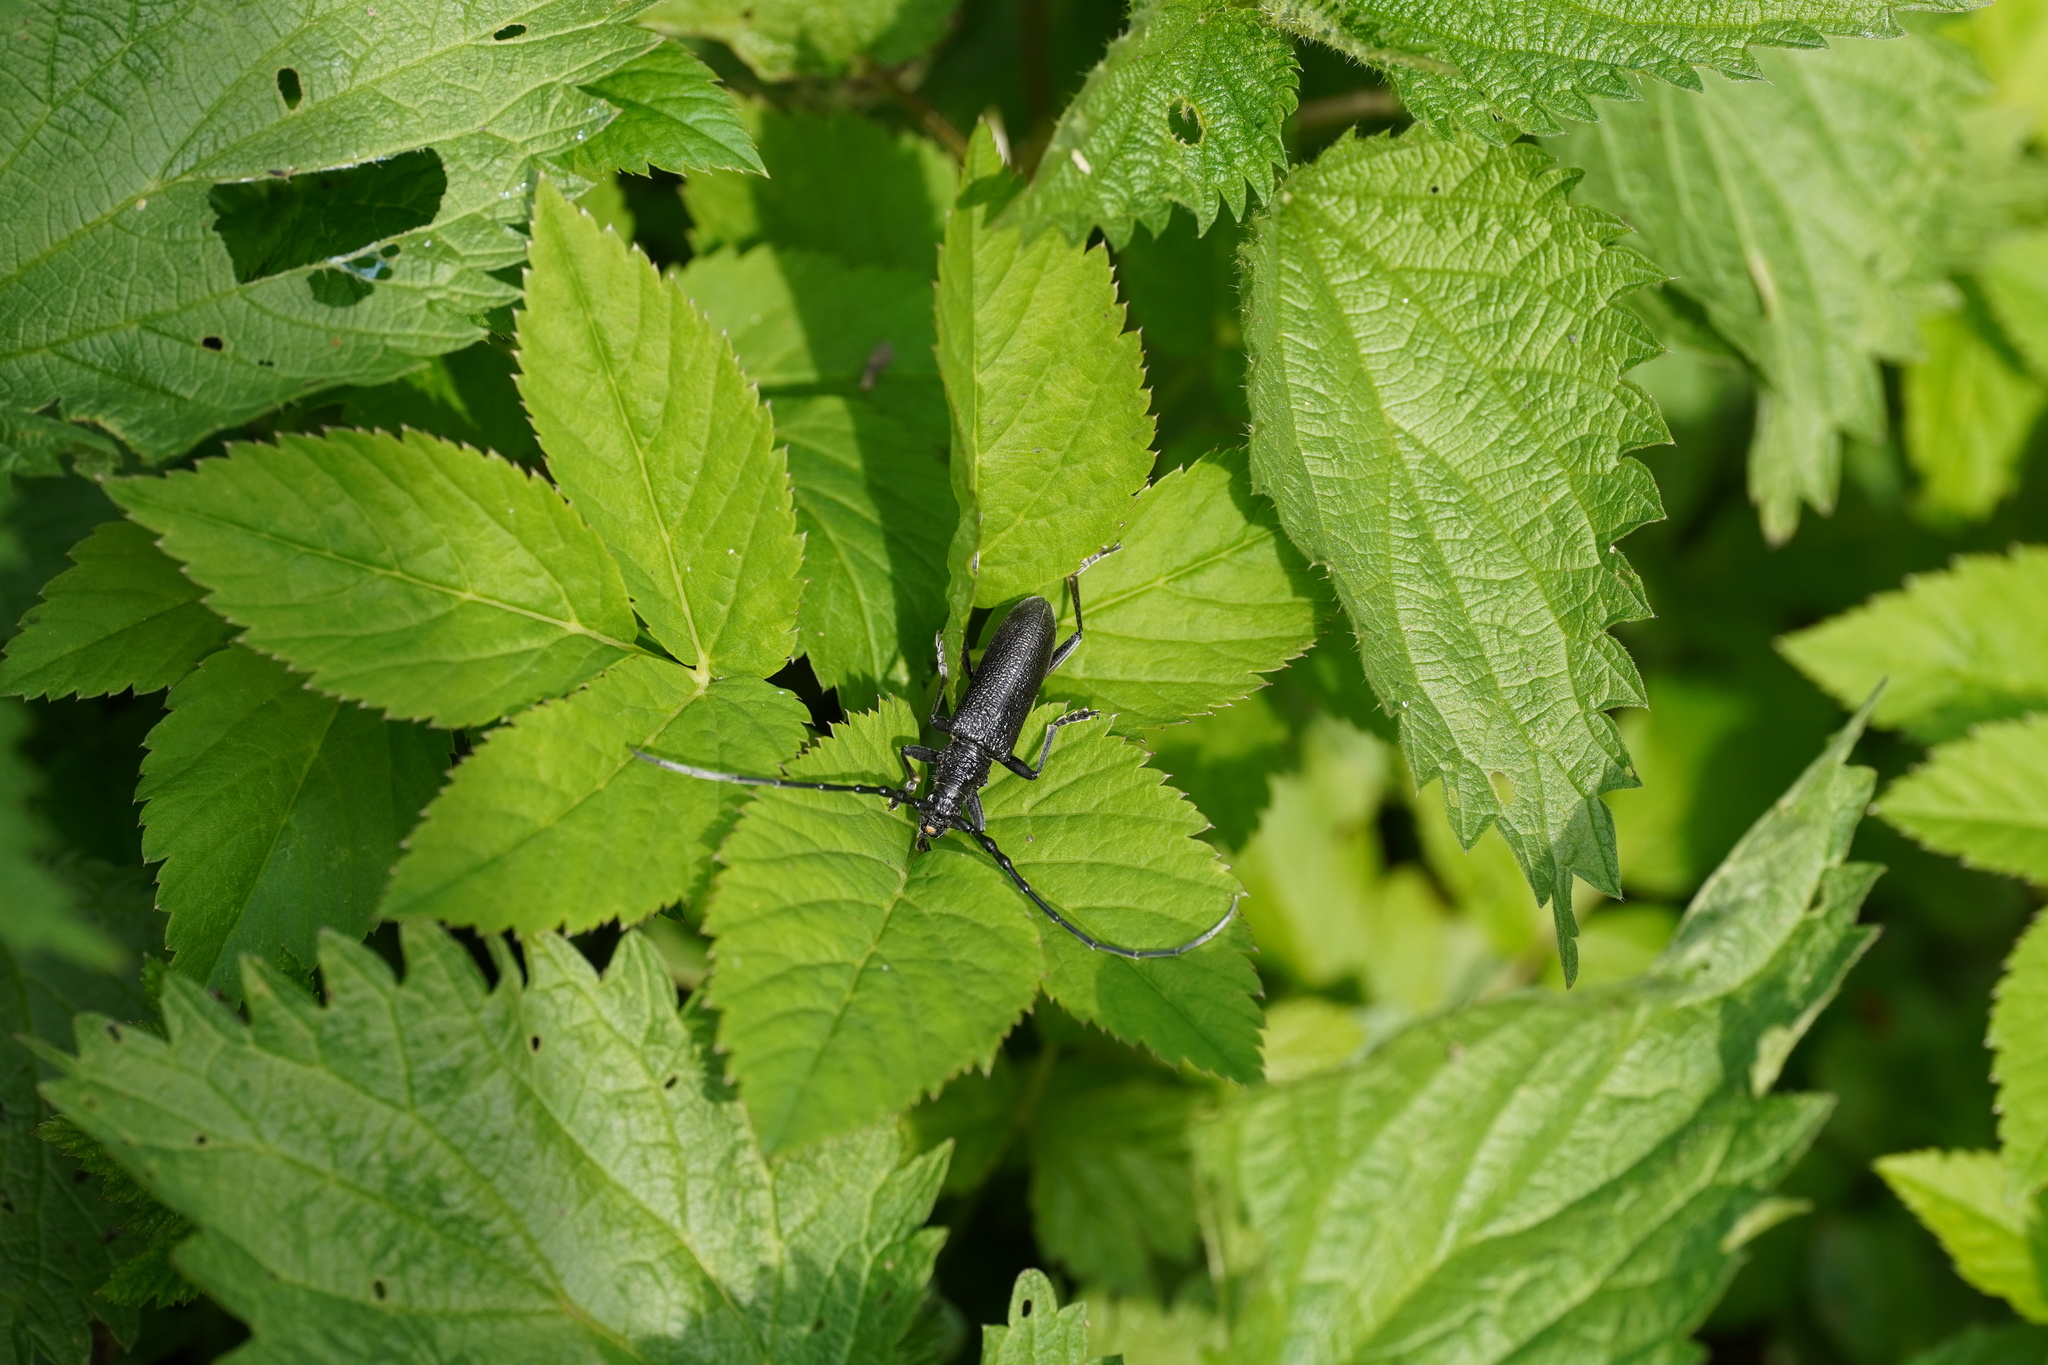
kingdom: Animalia
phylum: Arthropoda
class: Insecta
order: Coleoptera
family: Cerambycidae
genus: Cerambyx
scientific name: Cerambyx scopolii
